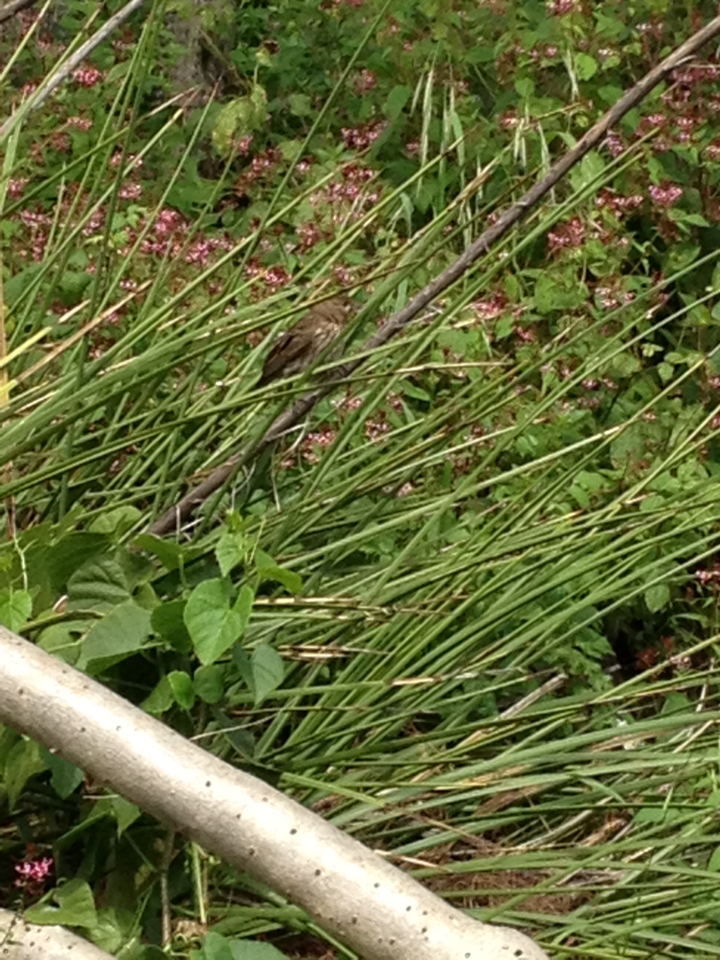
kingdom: Animalia
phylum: Chordata
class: Aves
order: Passeriformes
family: Fringillidae
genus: Haemorhous
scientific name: Haemorhous mexicanus
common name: House finch
